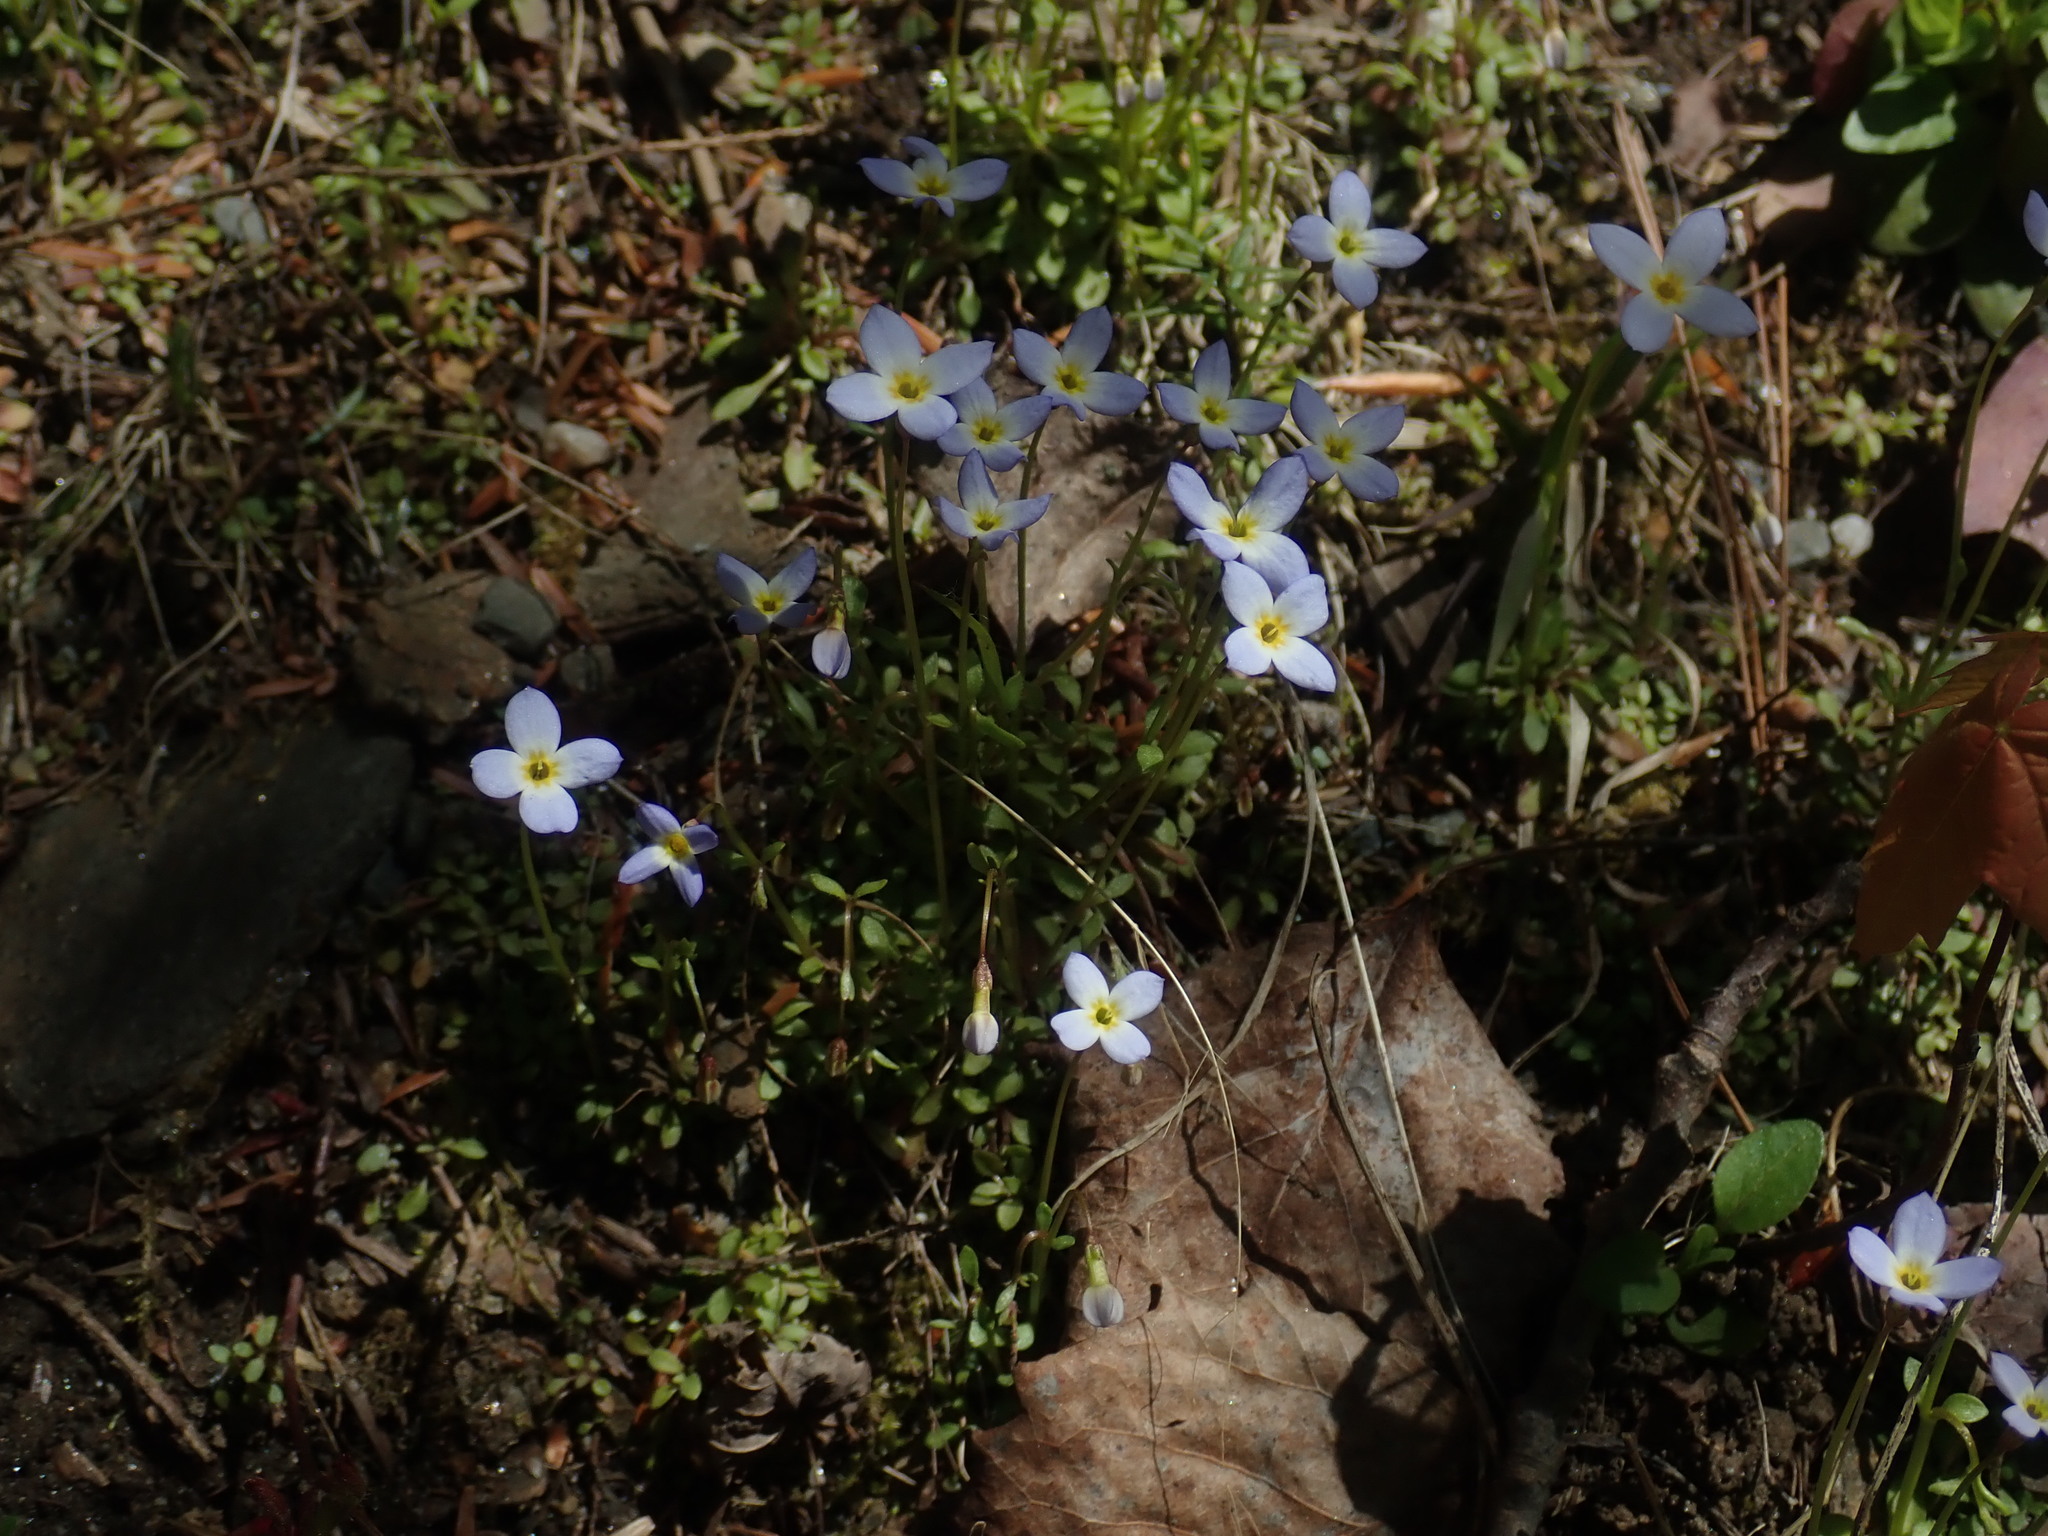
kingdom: Plantae
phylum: Tracheophyta
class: Magnoliopsida
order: Gentianales
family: Rubiaceae
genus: Houstonia
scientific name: Houstonia caerulea
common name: Bluets
